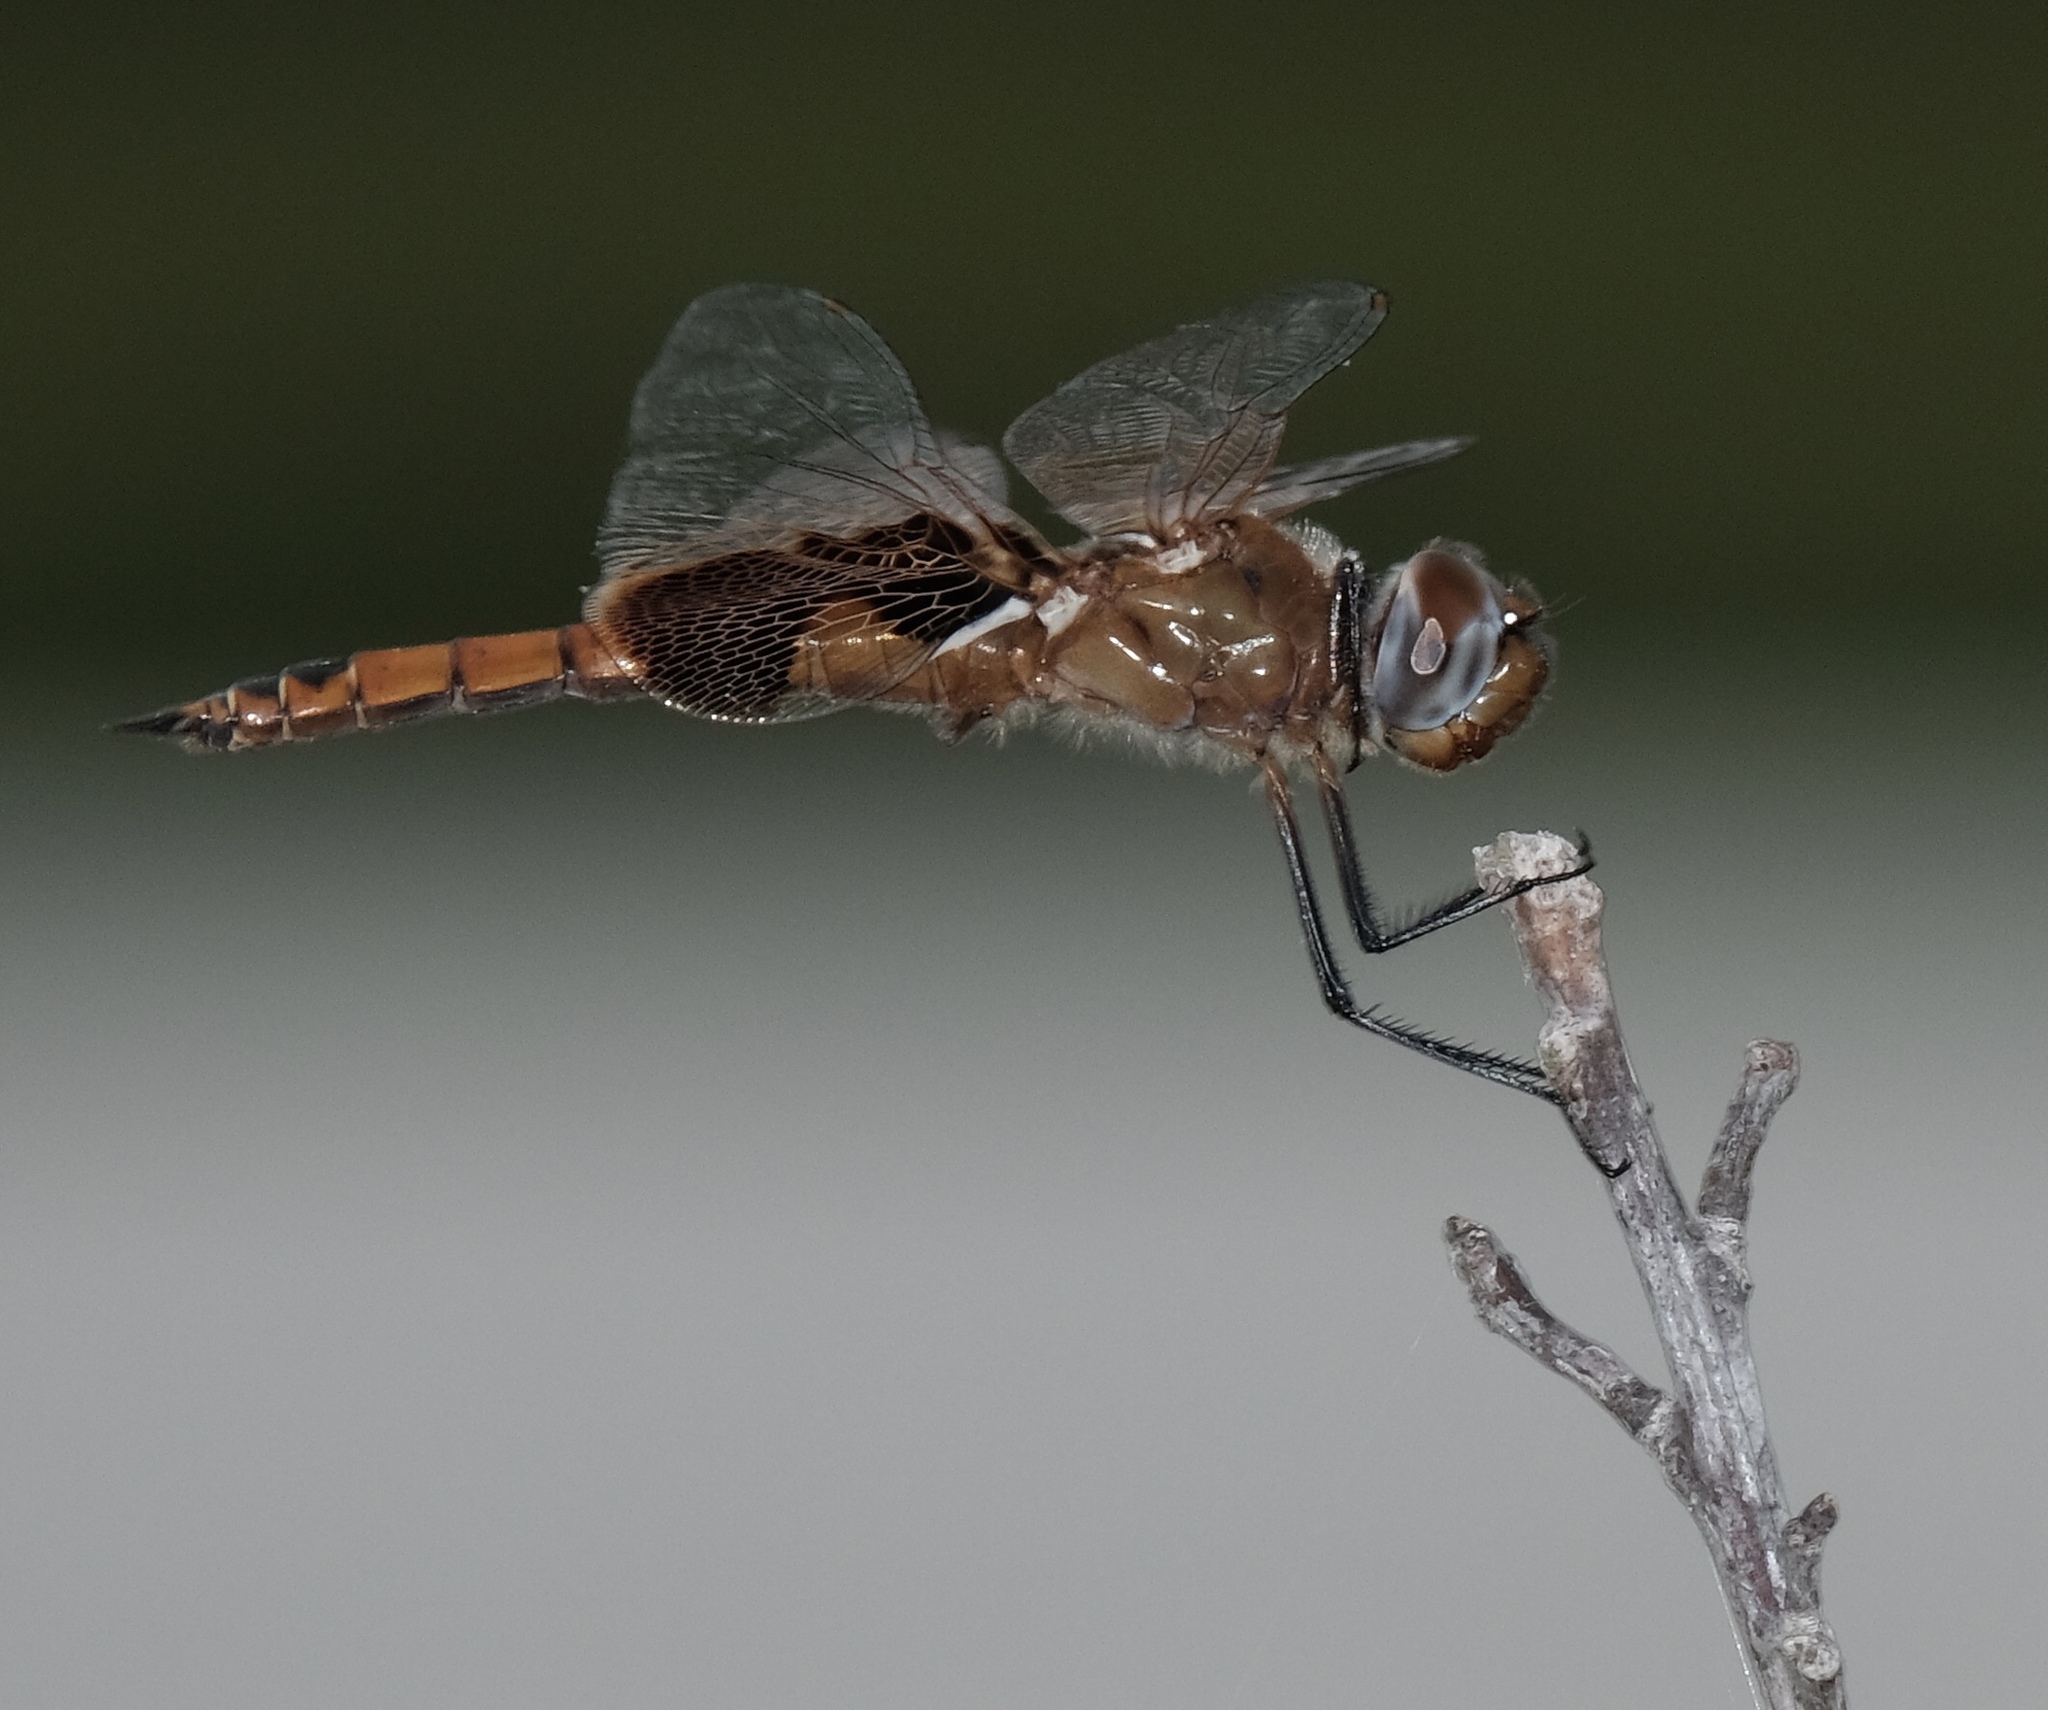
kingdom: Animalia
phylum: Arthropoda
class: Insecta
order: Odonata
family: Libellulidae
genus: Tramea
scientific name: Tramea onusta
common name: Red saddlebags
